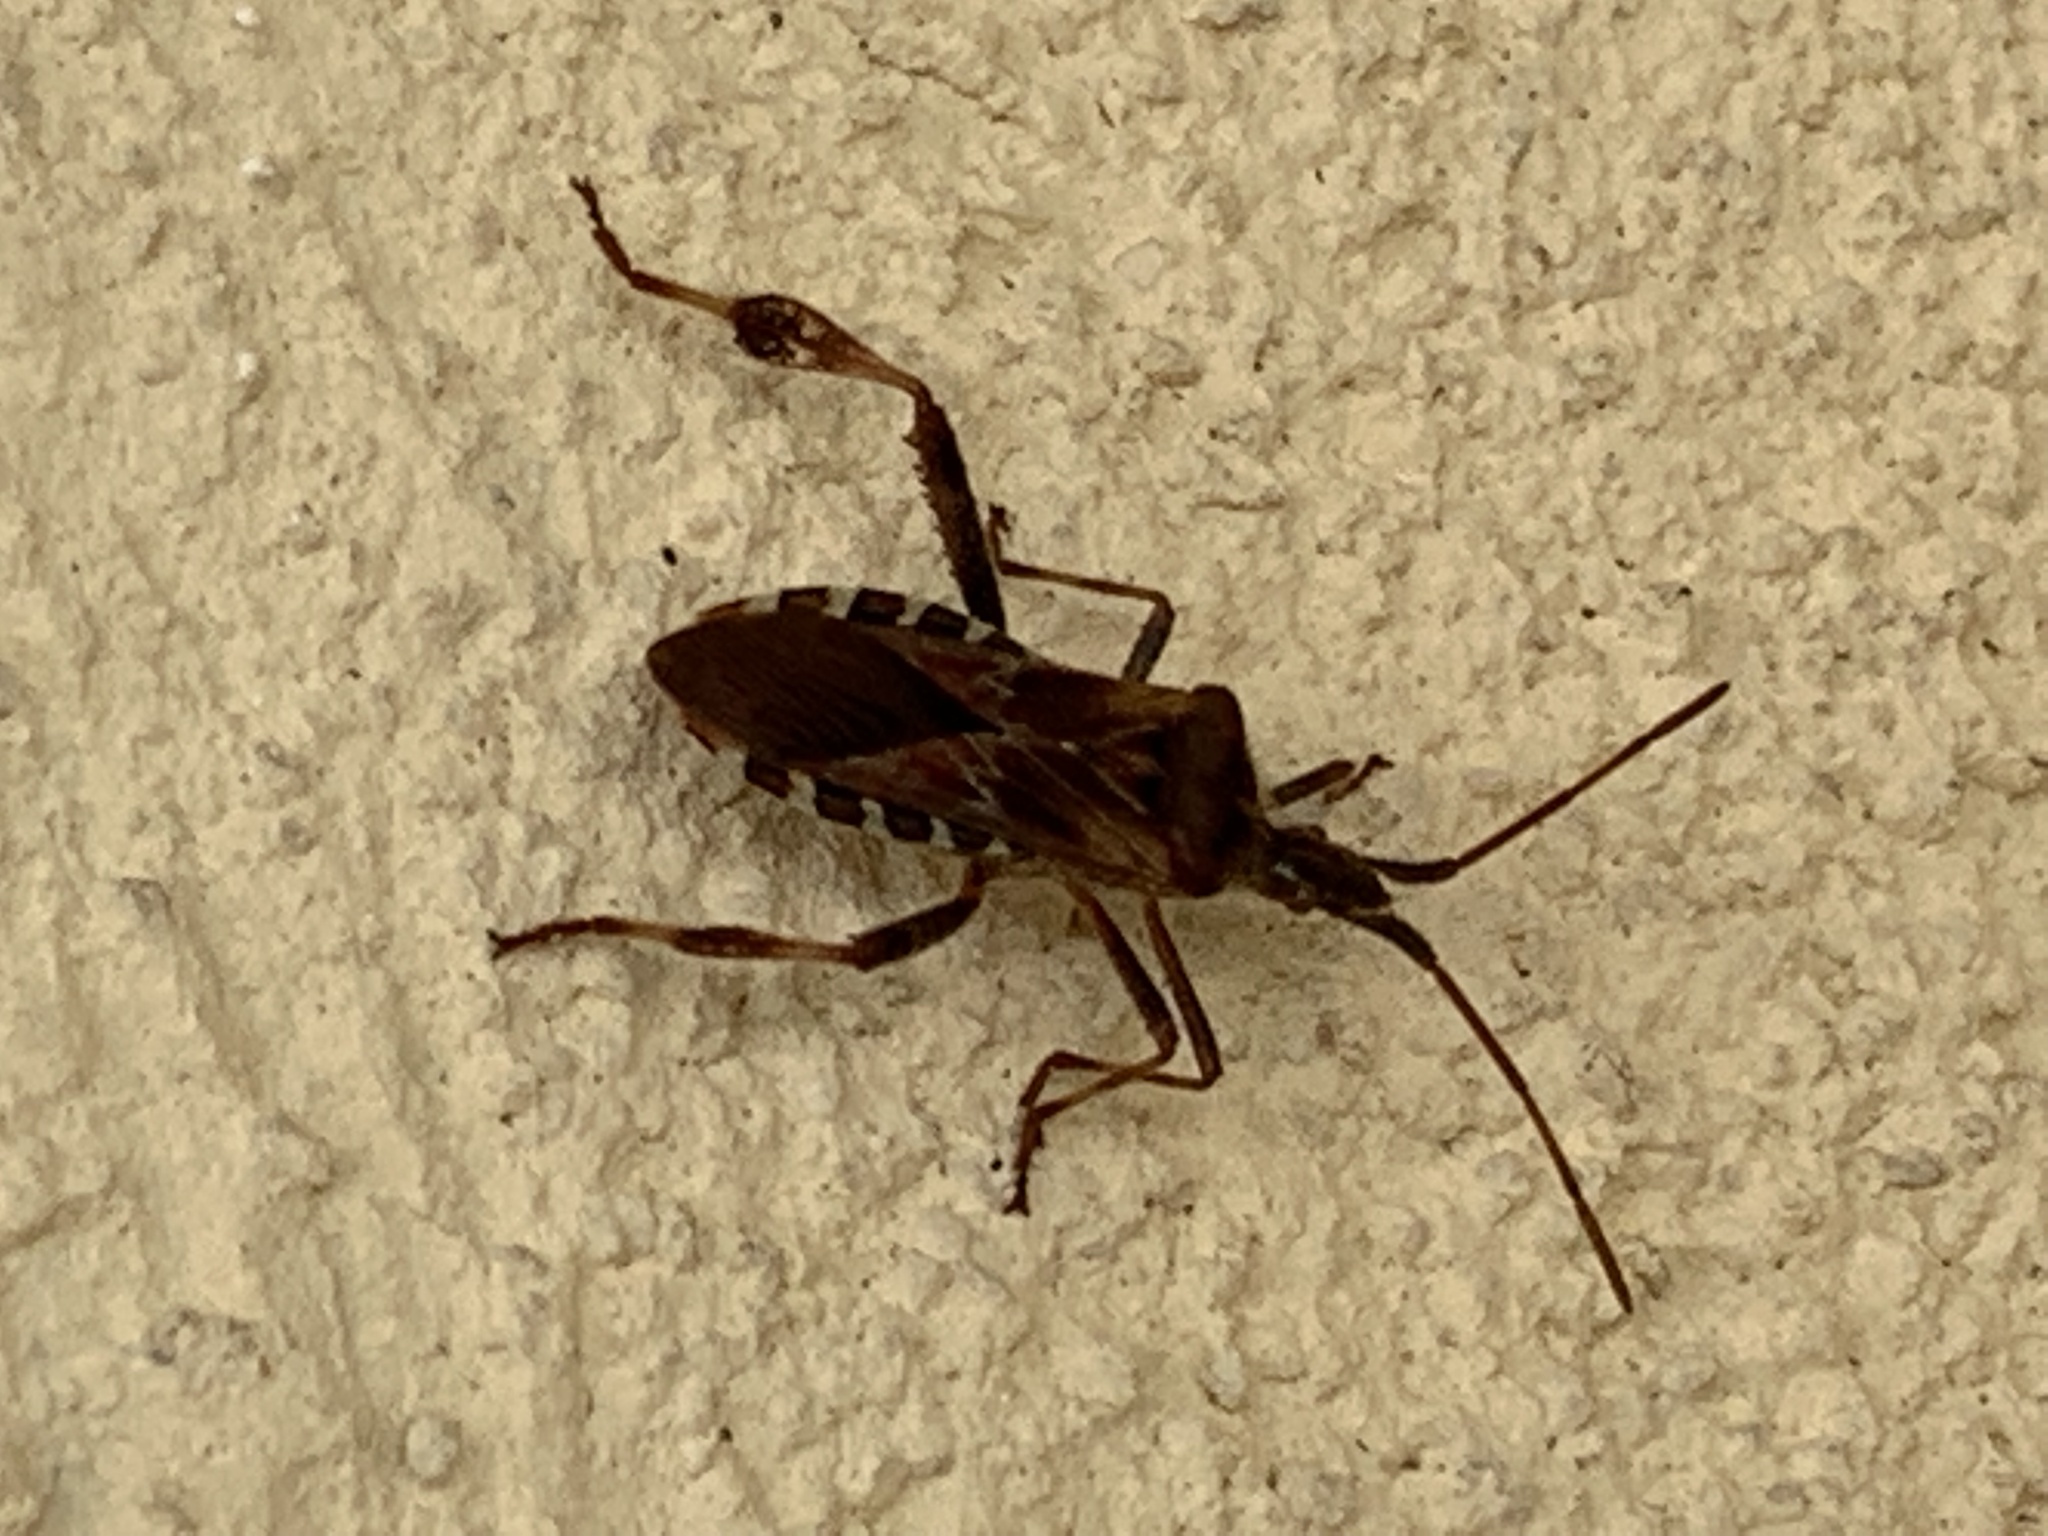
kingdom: Animalia
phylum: Arthropoda
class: Insecta
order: Hemiptera
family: Coreidae
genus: Leptoglossus
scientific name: Leptoglossus occidentalis
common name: Western conifer-seed bug
